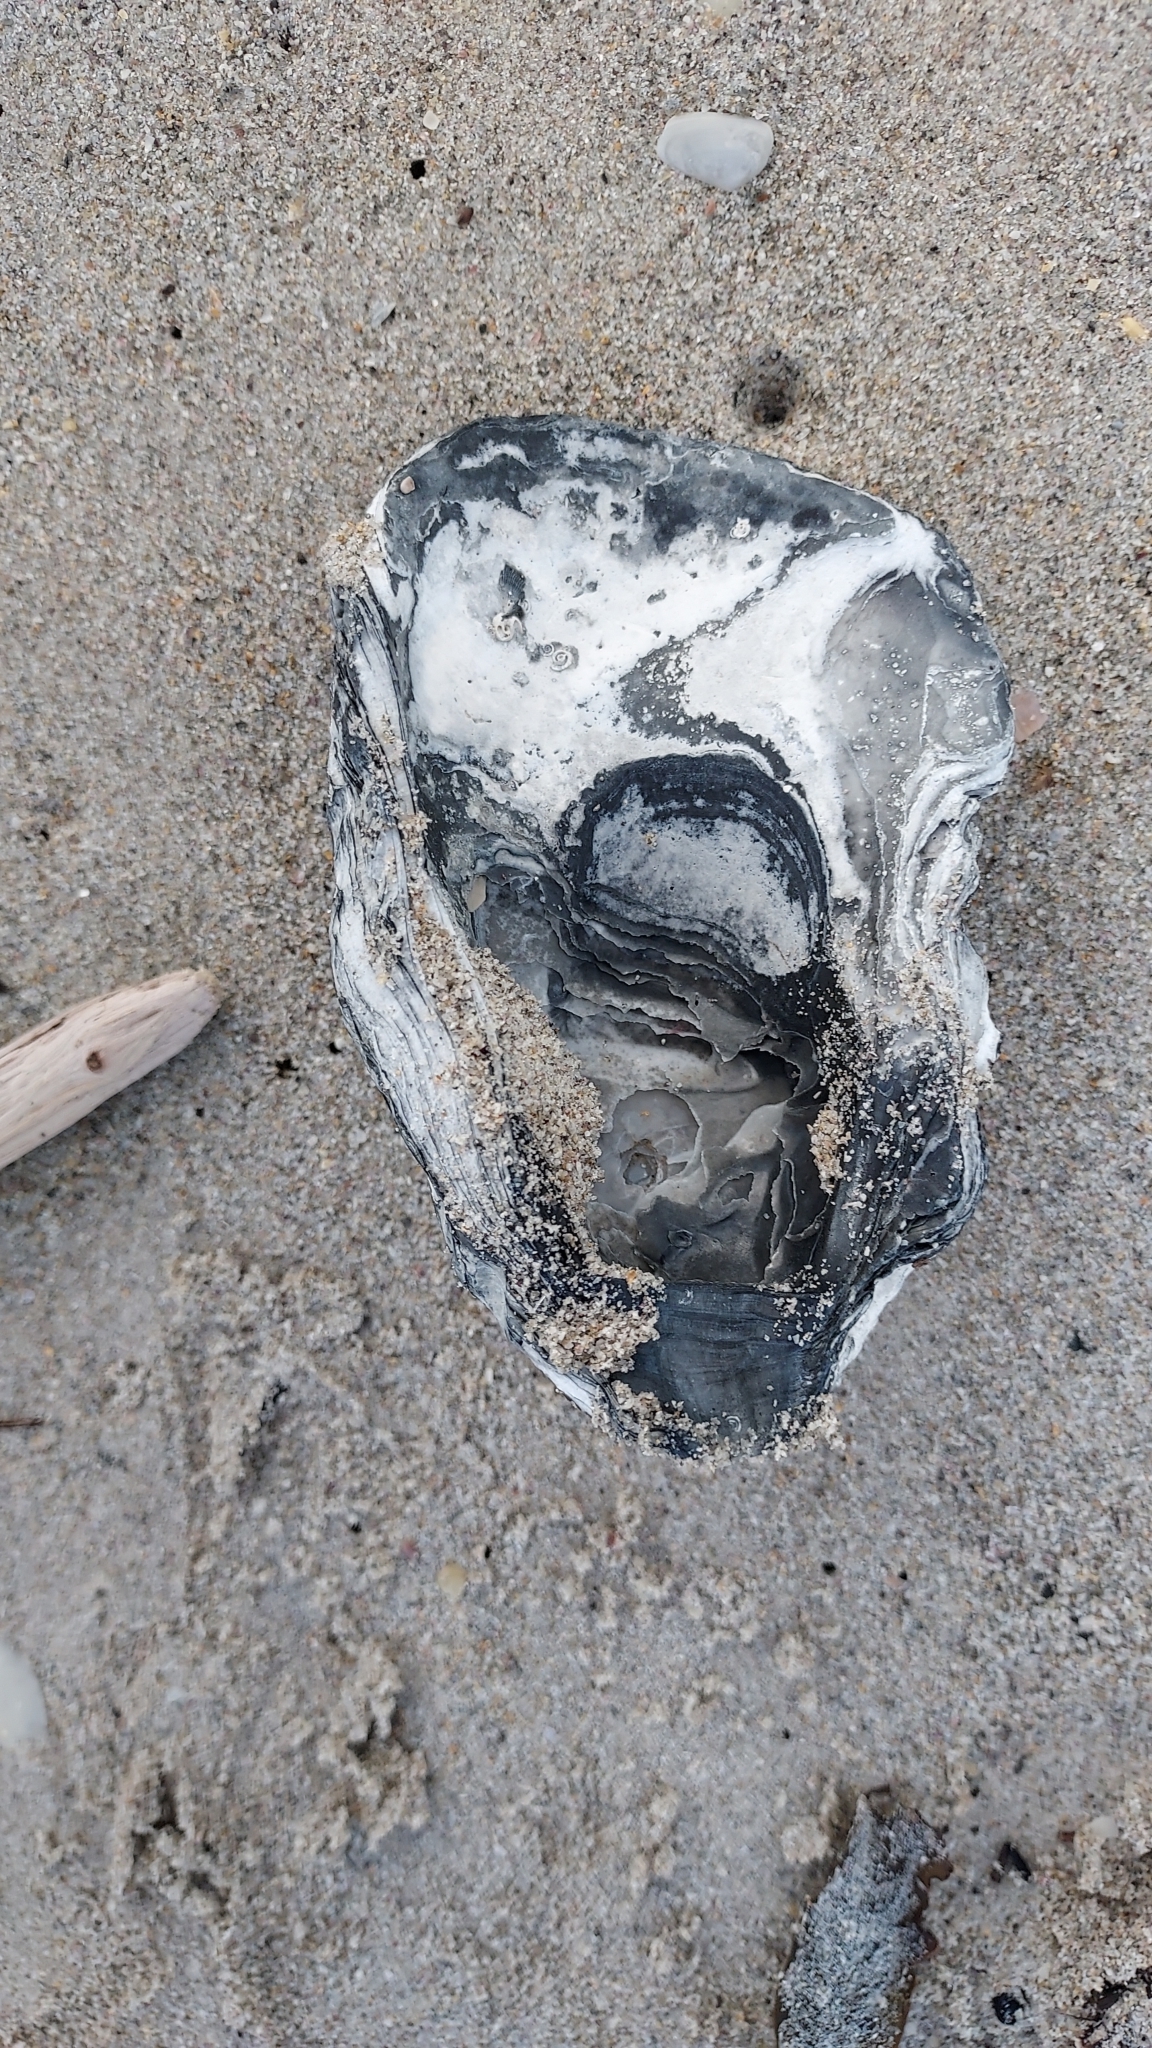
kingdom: Animalia
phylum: Mollusca
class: Bivalvia
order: Ostreida
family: Ostreidae
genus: Ostrea
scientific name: Ostrea angasi
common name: Angasi oyster
